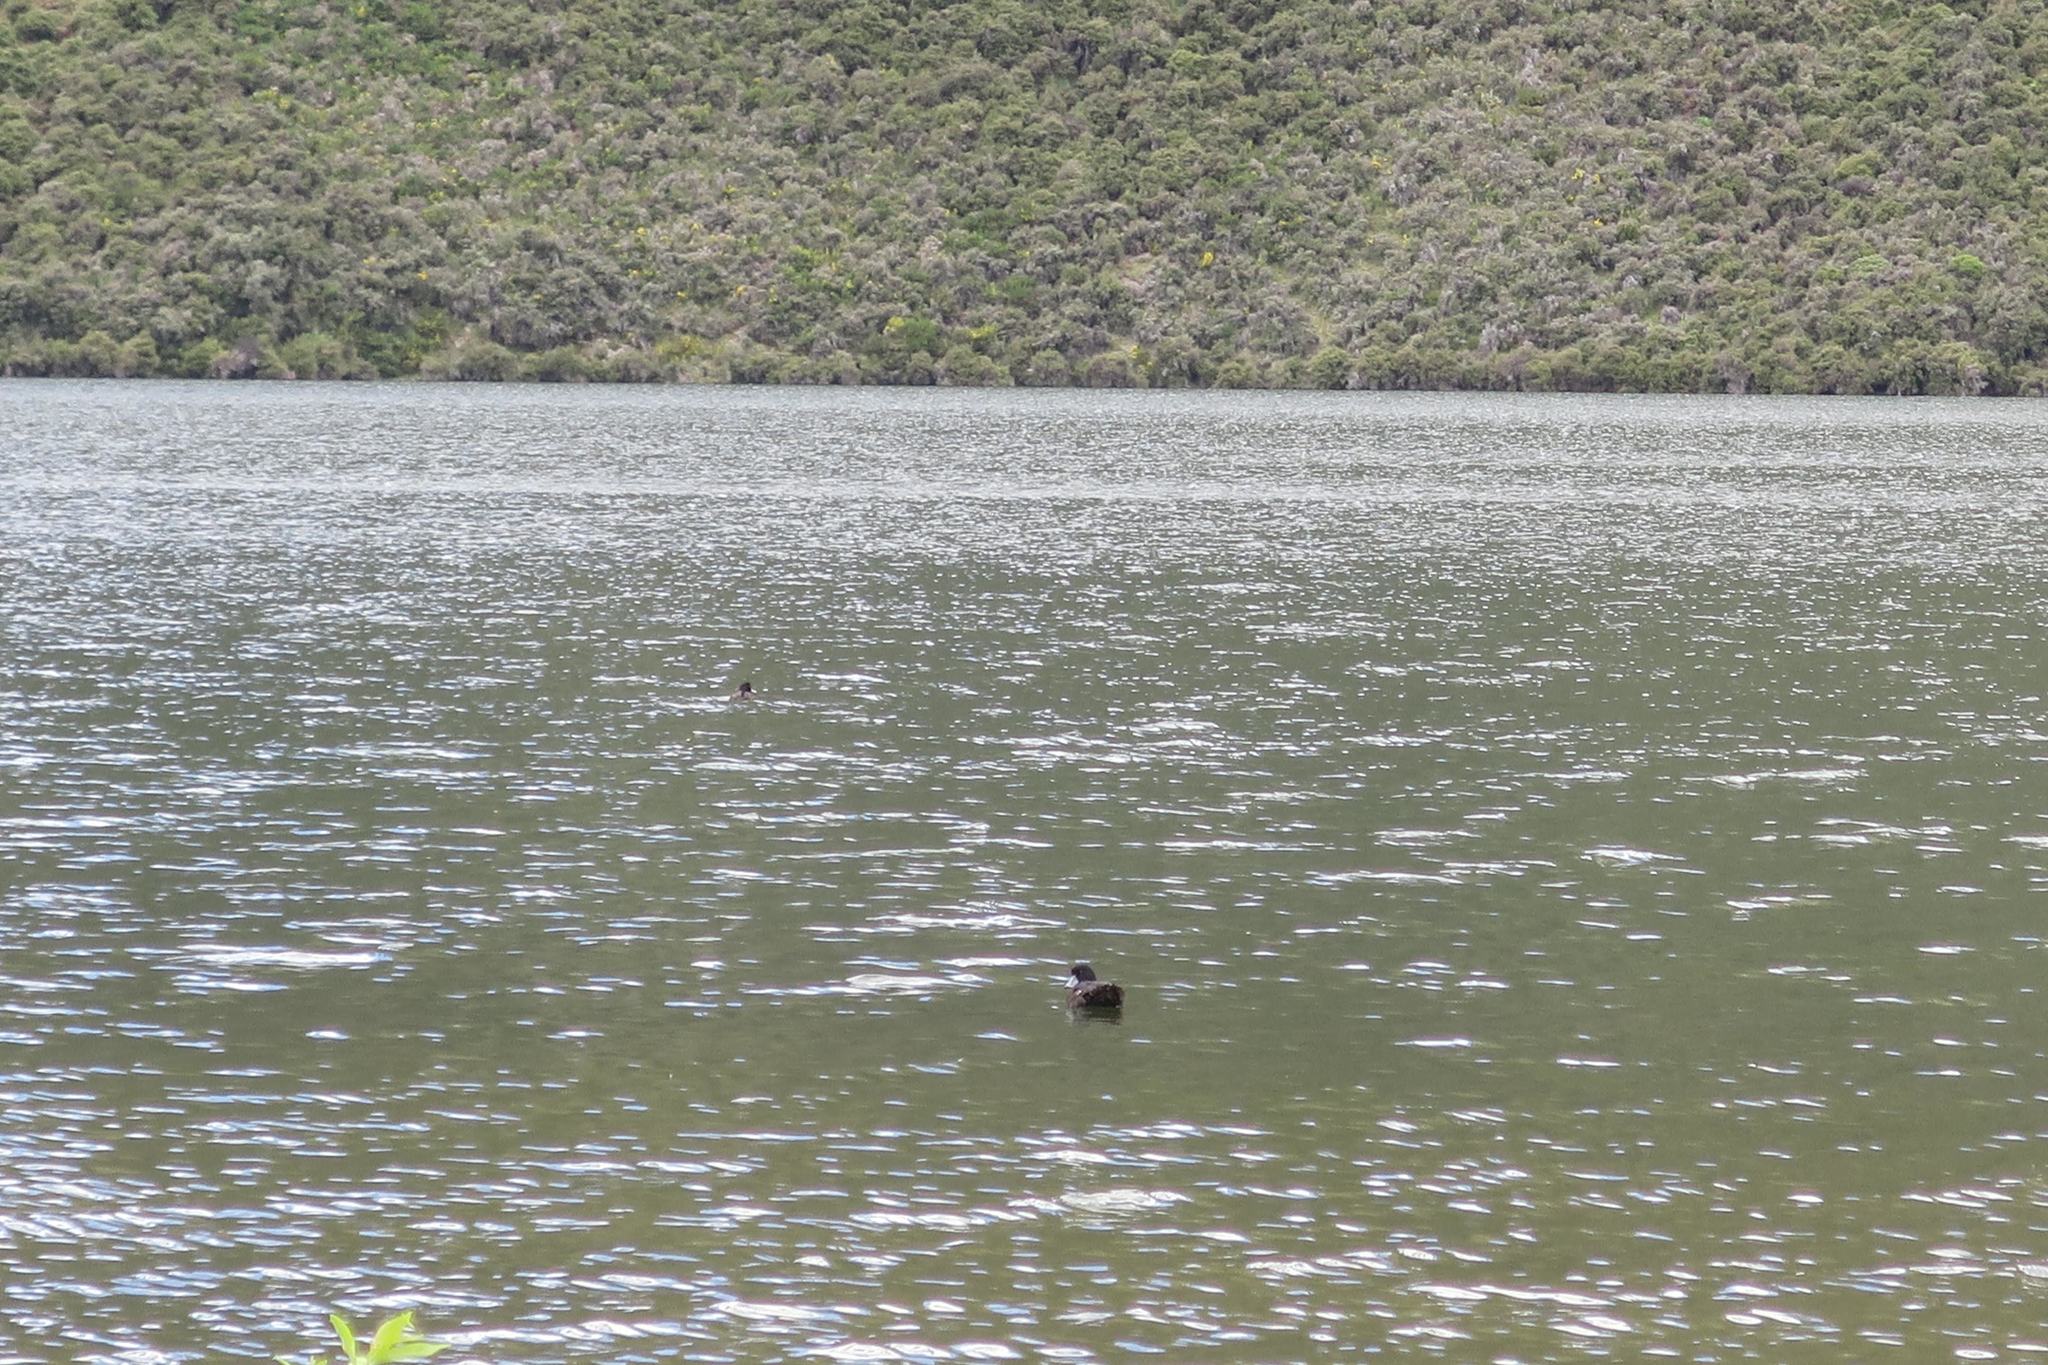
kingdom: Animalia
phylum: Chordata
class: Aves
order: Anseriformes
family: Anatidae
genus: Aythya
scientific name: Aythya novaeseelandiae
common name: New zealand scaup
